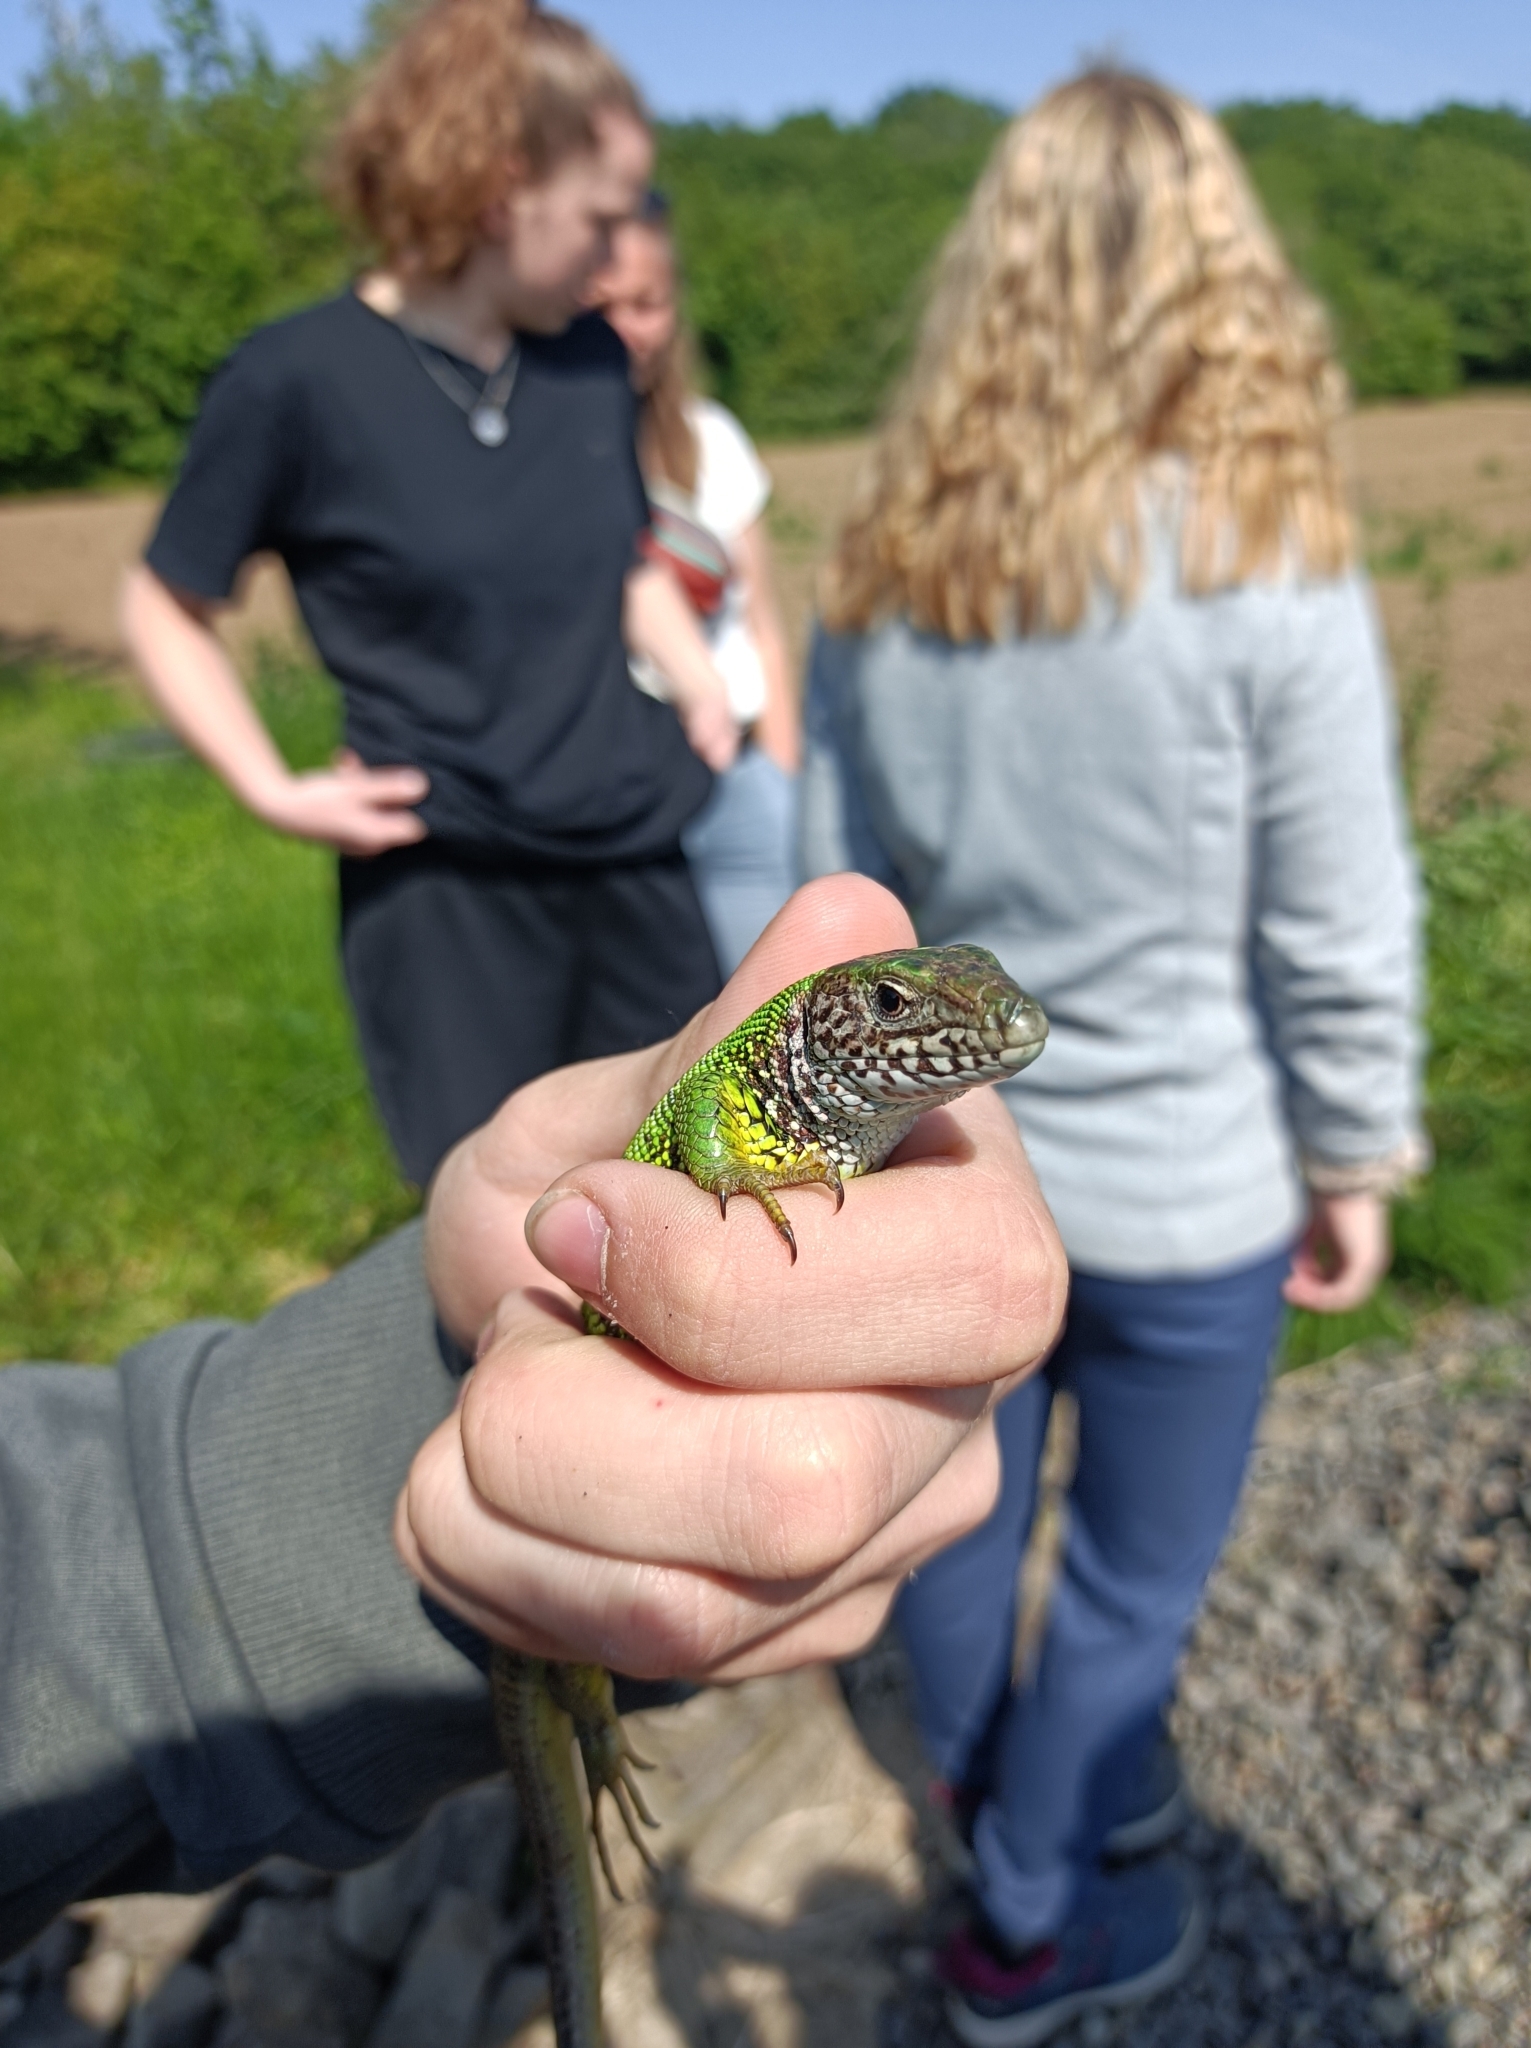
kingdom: Animalia
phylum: Chordata
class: Squamata
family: Lacertidae
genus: Lacerta
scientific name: Lacerta viridis
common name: European green lizard
